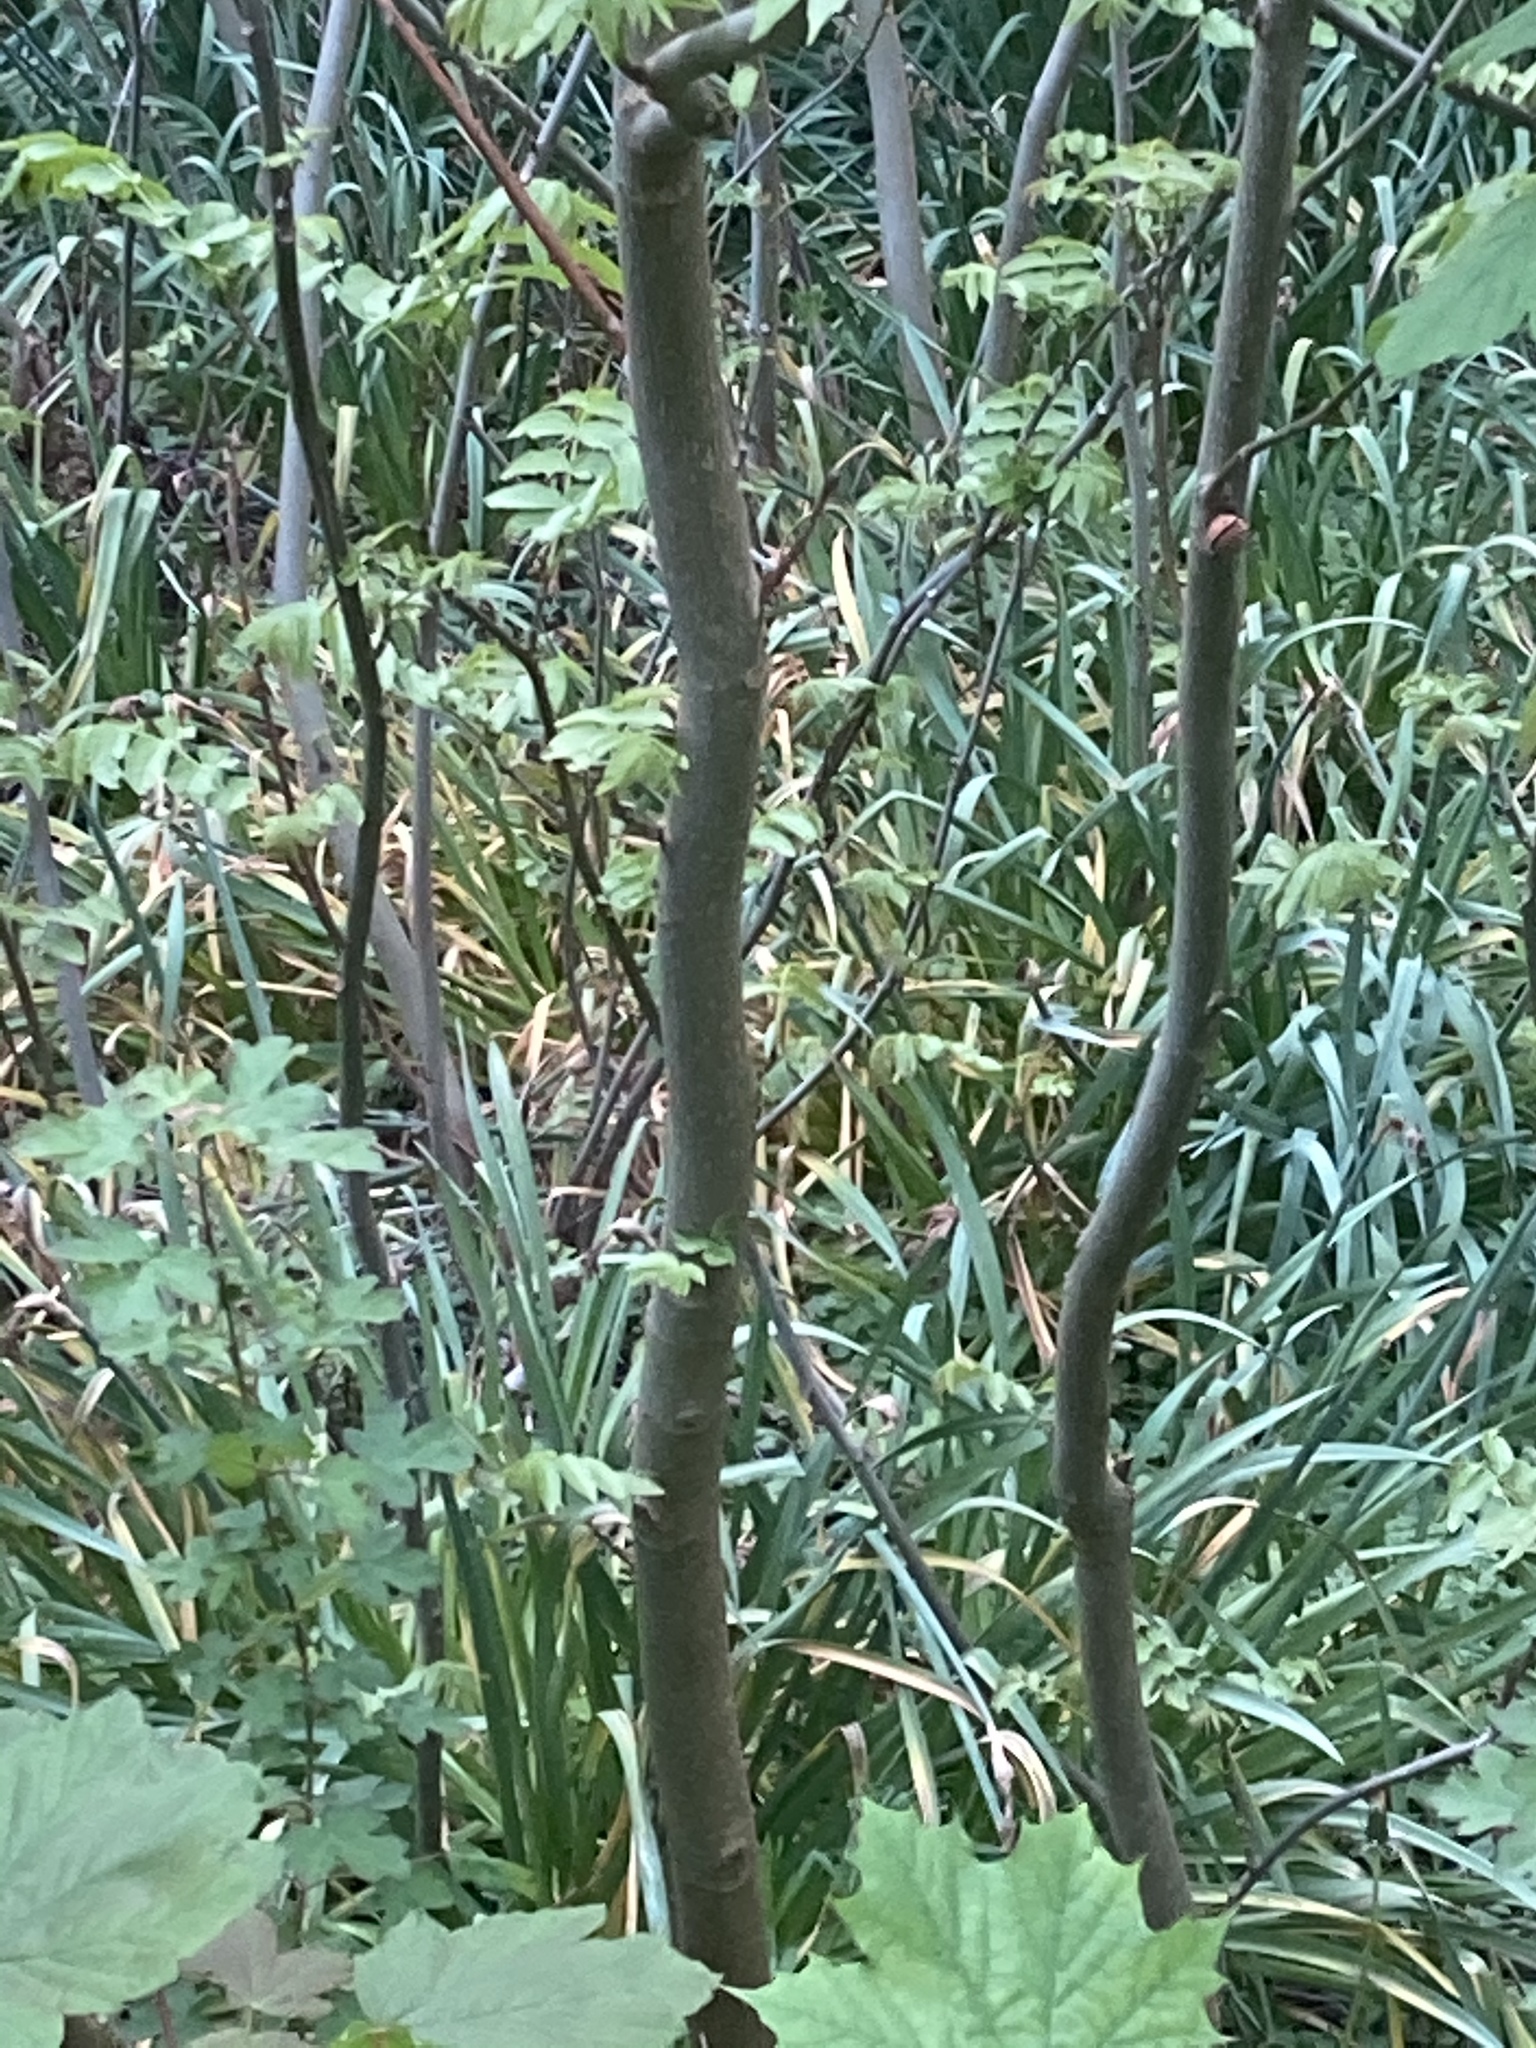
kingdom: Plantae
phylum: Tracheophyta
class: Magnoliopsida
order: Sapindales
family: Sapindaceae
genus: Acer
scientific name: Acer pseudoplatanus
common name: Sycamore
